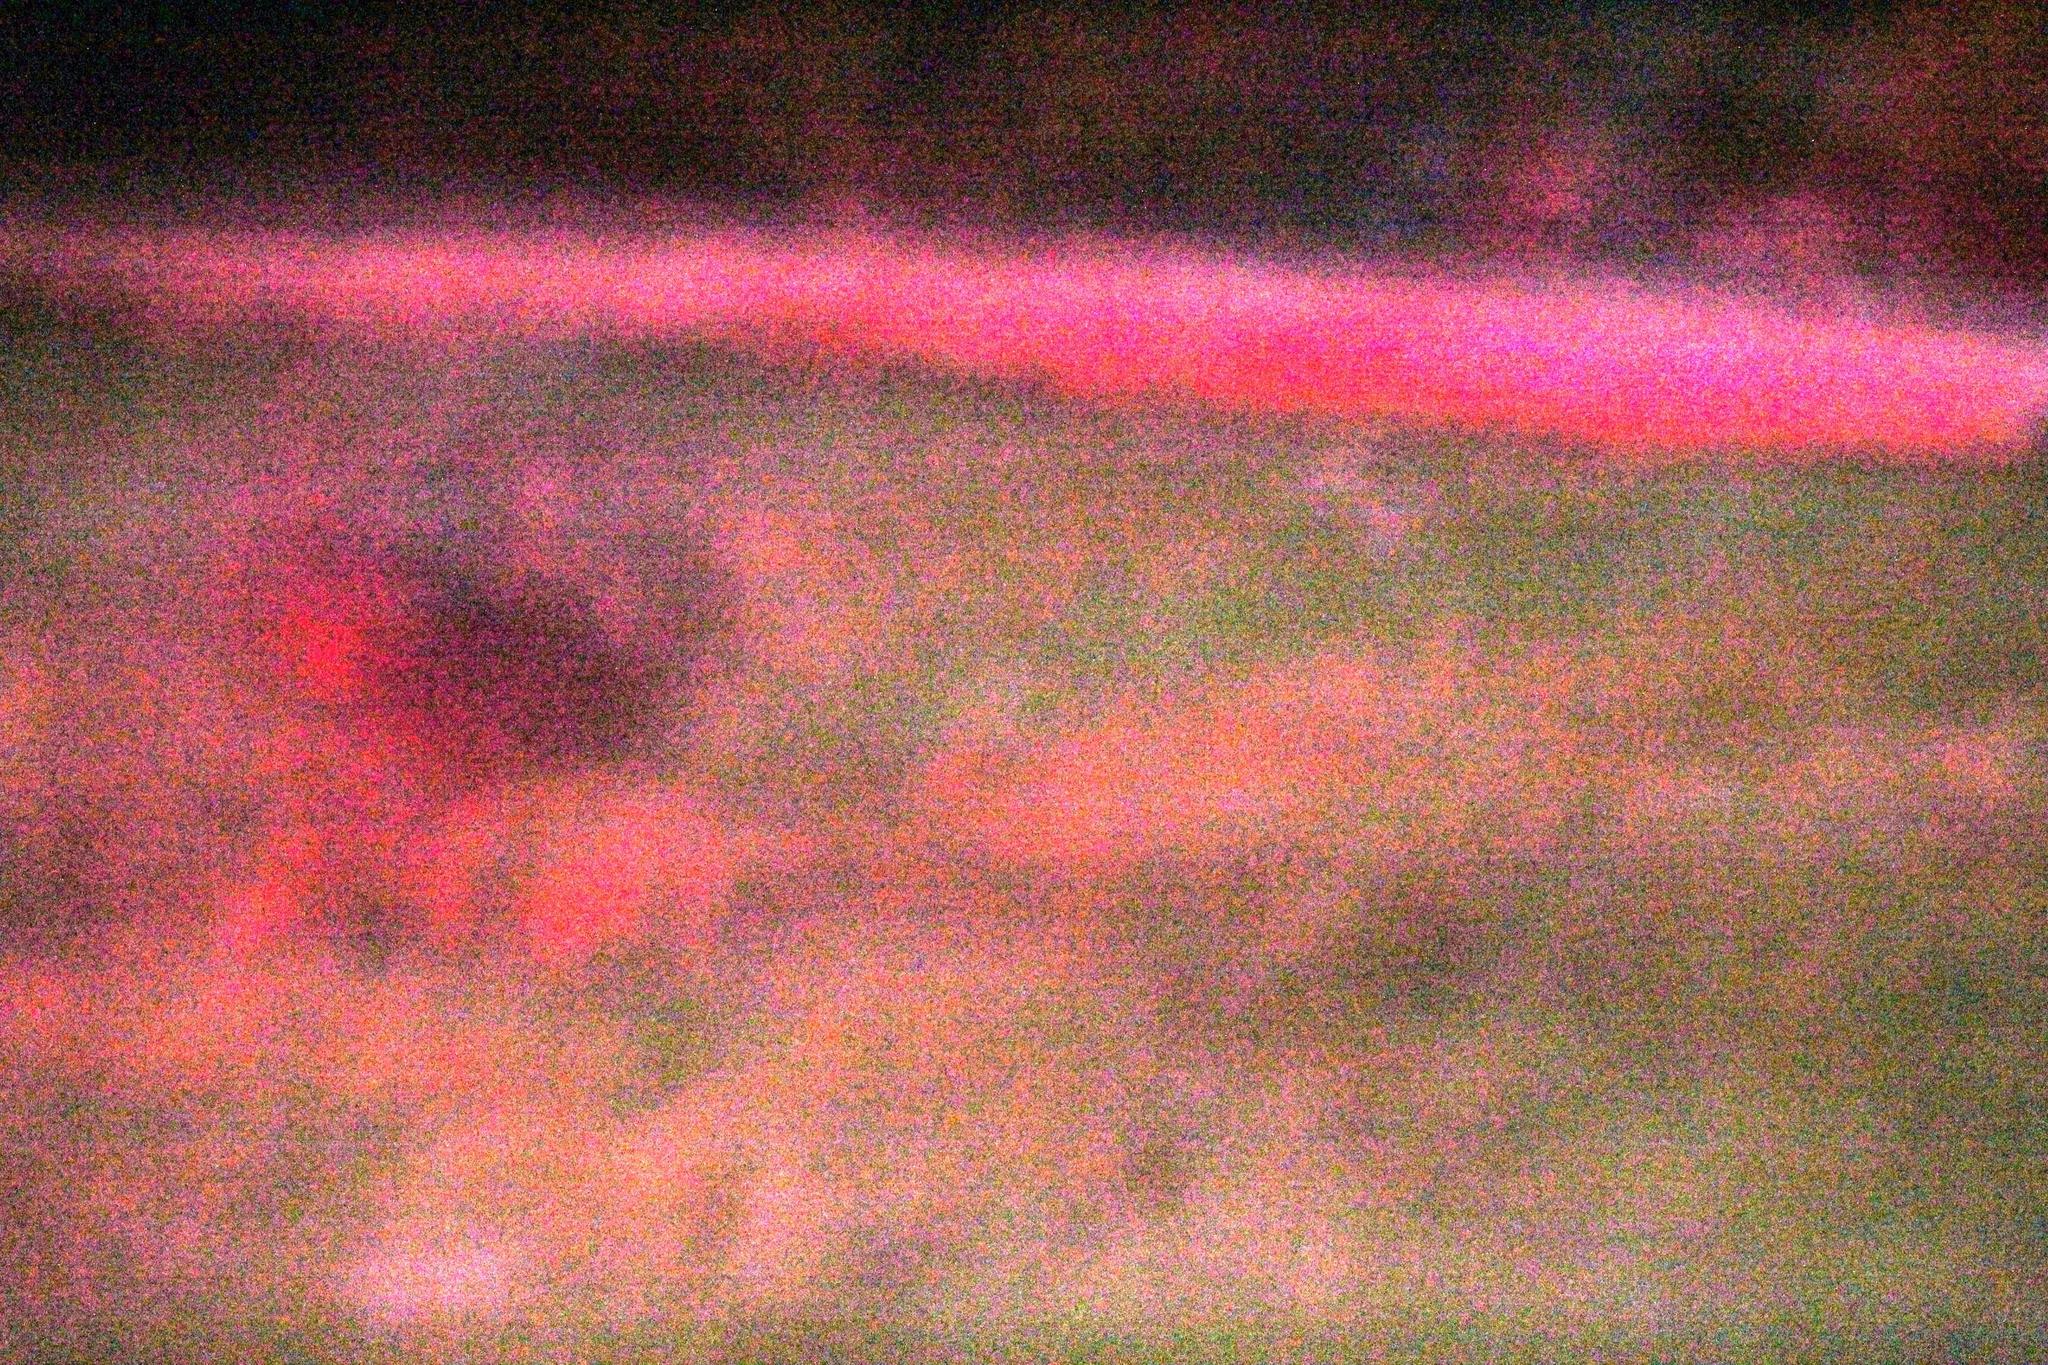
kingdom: Animalia
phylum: Chordata
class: Aves
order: Strigiformes
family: Strigidae
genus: Bubo
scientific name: Bubo africanus
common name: Spotted eagle-owl
